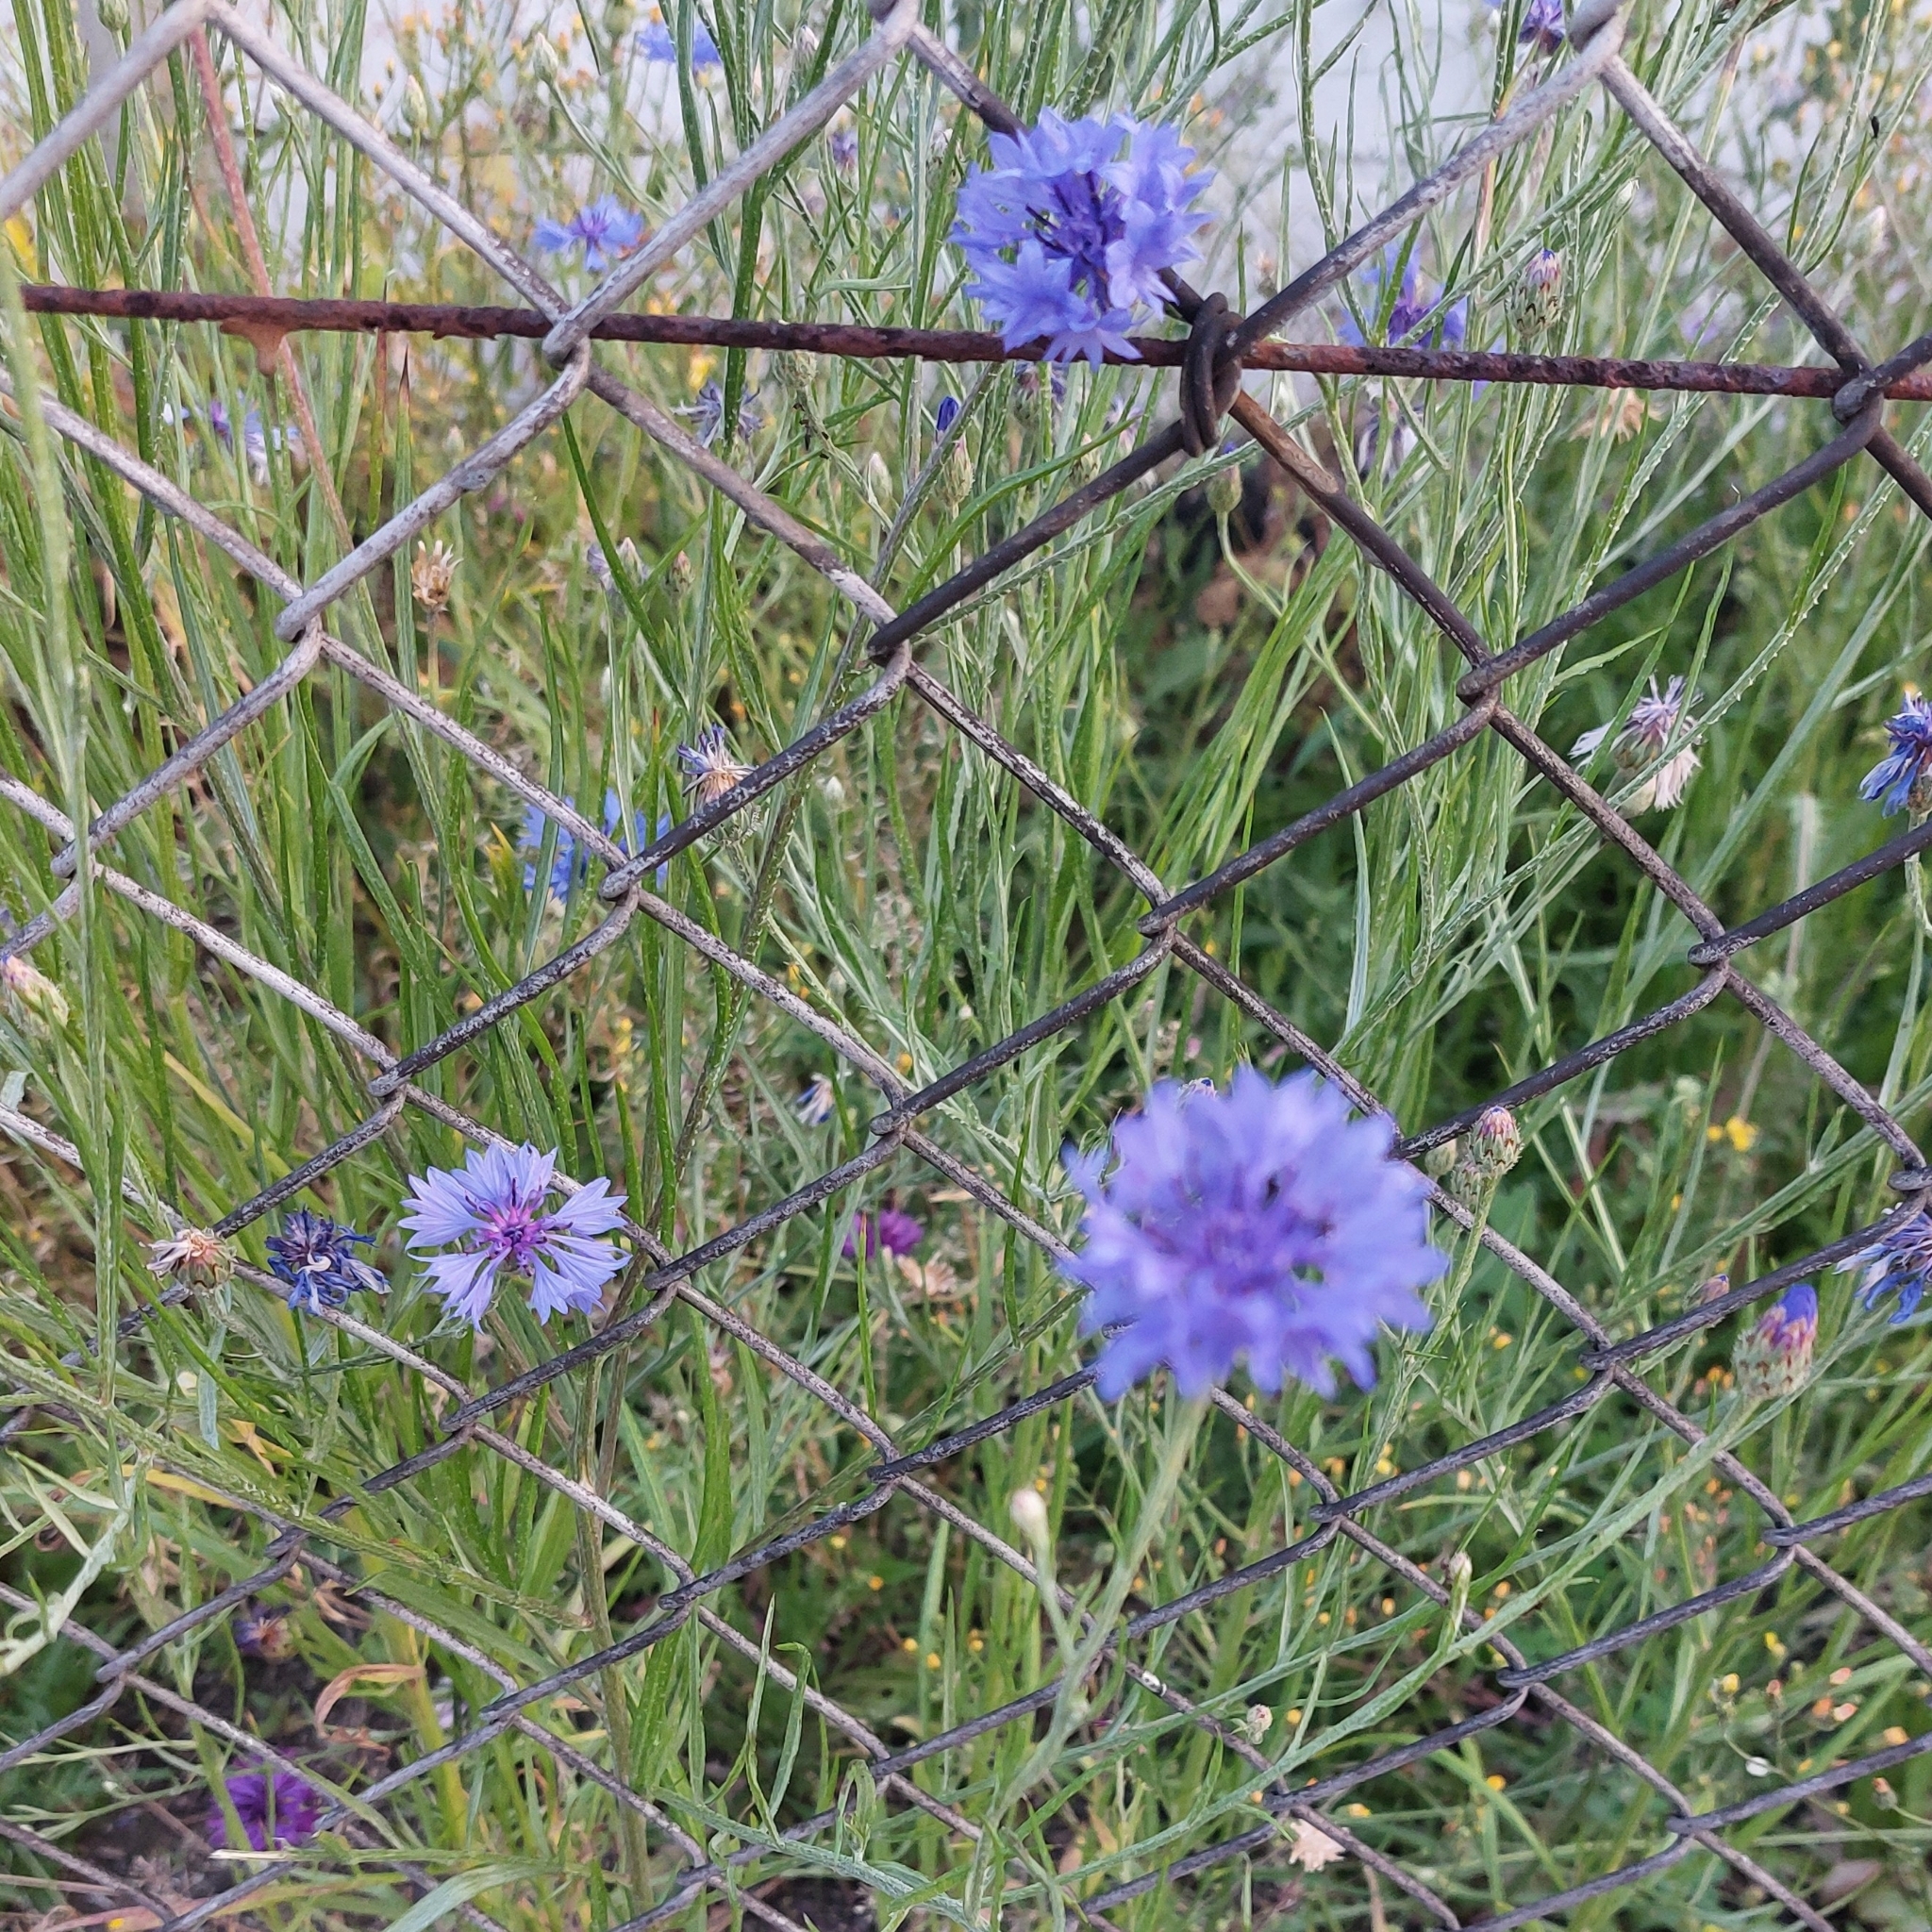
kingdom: Plantae
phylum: Tracheophyta
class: Magnoliopsida
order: Asterales
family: Asteraceae
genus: Centaurea
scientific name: Centaurea cyanus
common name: Cornflower
